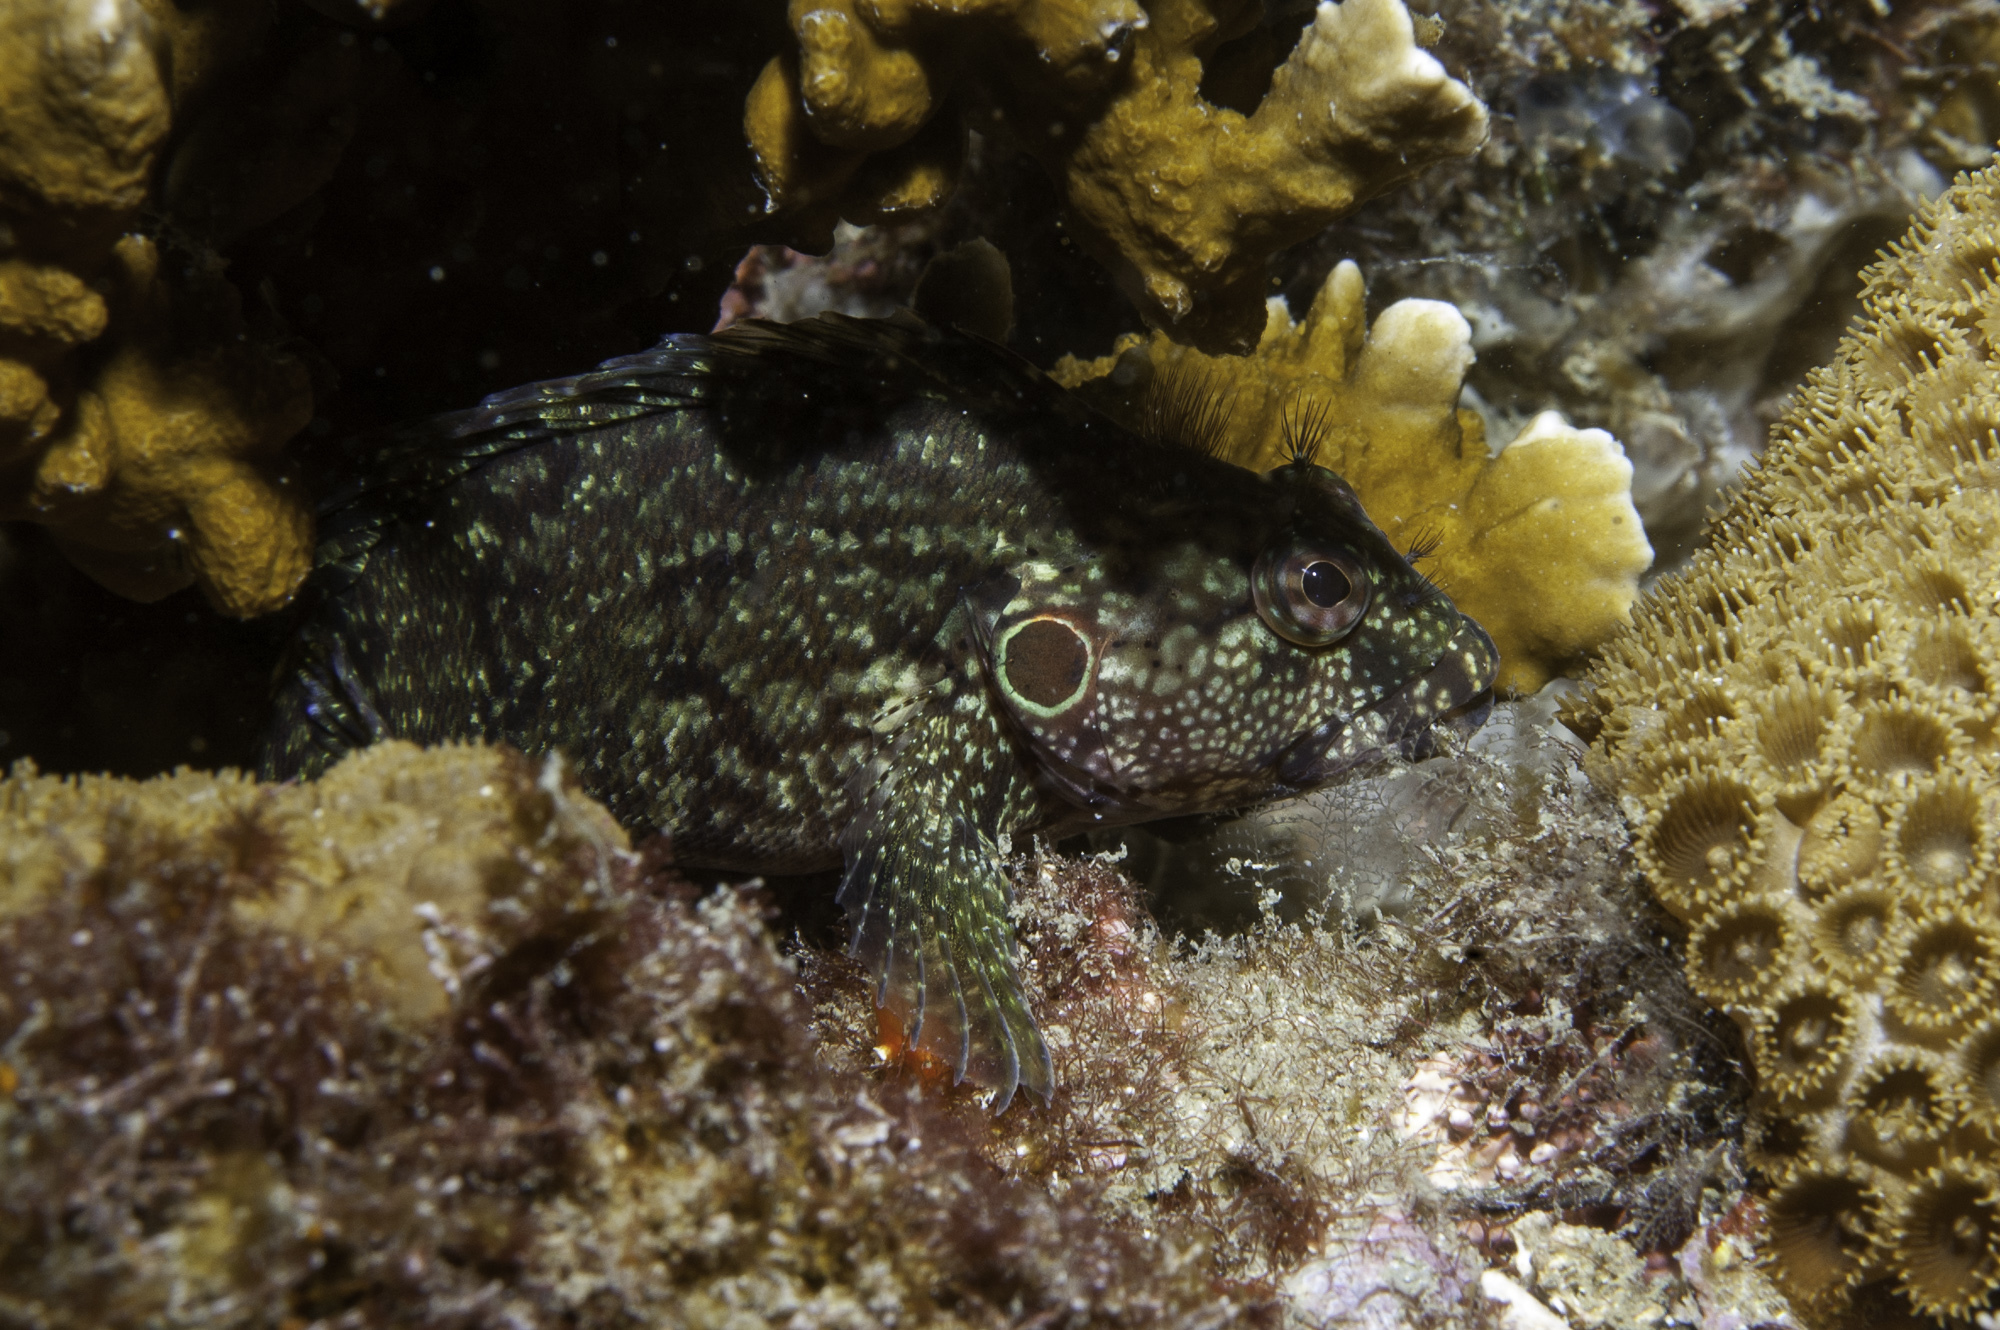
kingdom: Animalia
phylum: Chordata
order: Perciformes
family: Labrisomidae
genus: Labrisomus
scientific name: Labrisomus nuchipinnis
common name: Hairy blenny
